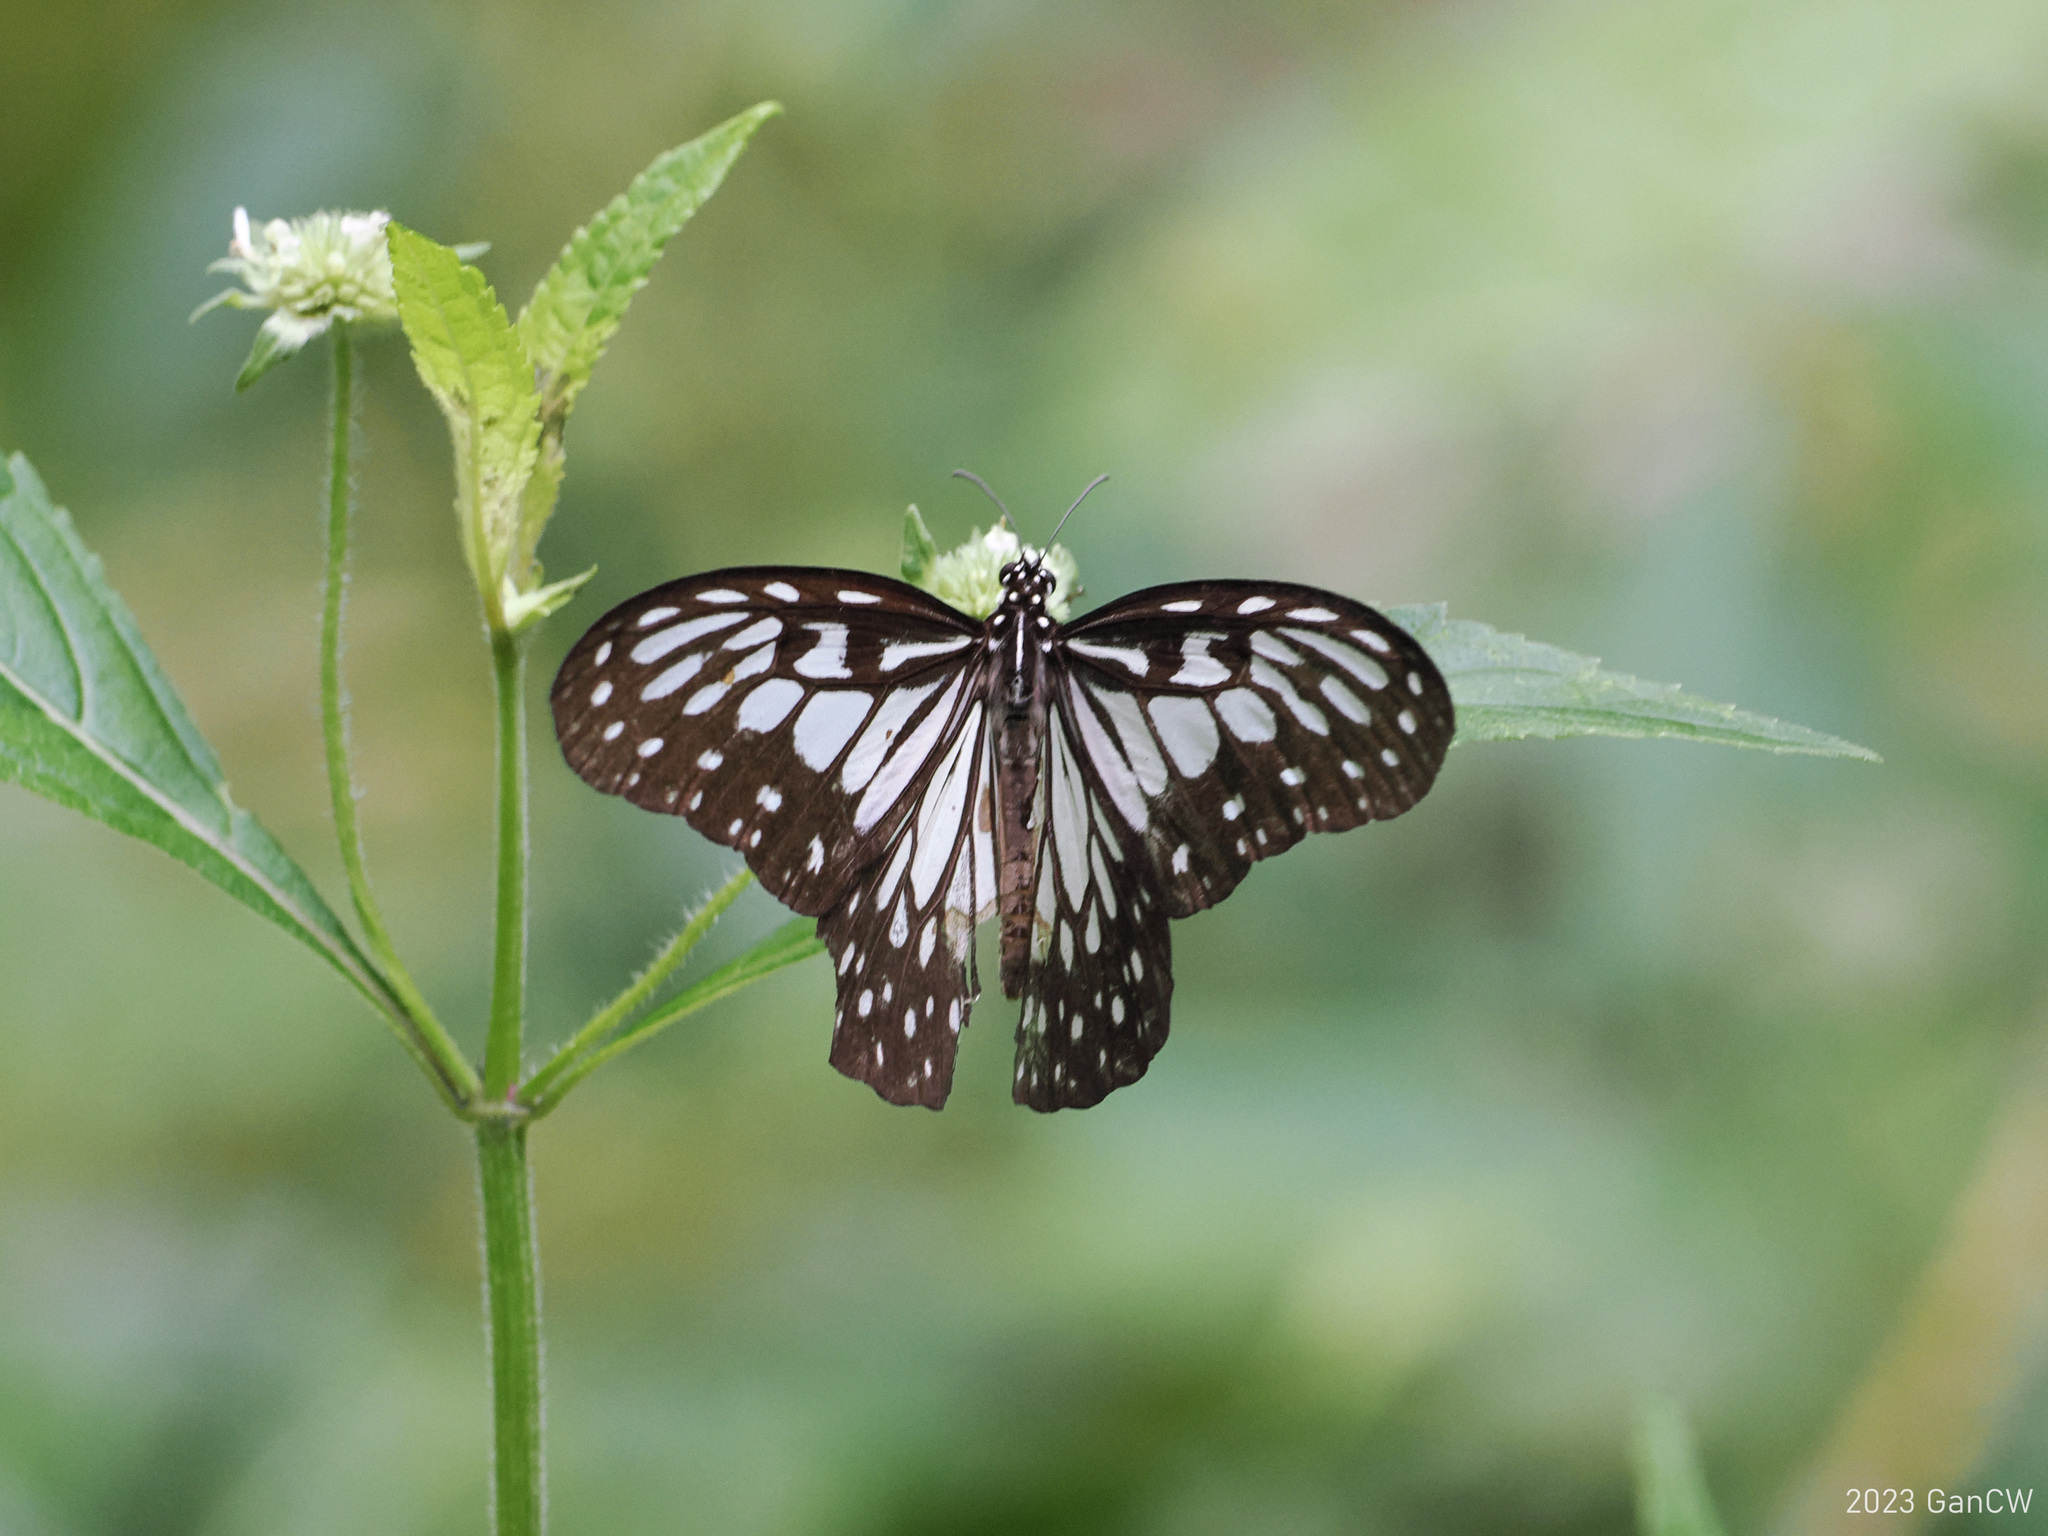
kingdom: Animalia
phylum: Arthropoda
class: Insecta
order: Lepidoptera
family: Nymphalidae
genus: Ideopsis
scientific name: Ideopsis juventa
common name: Grey glassy tiger
